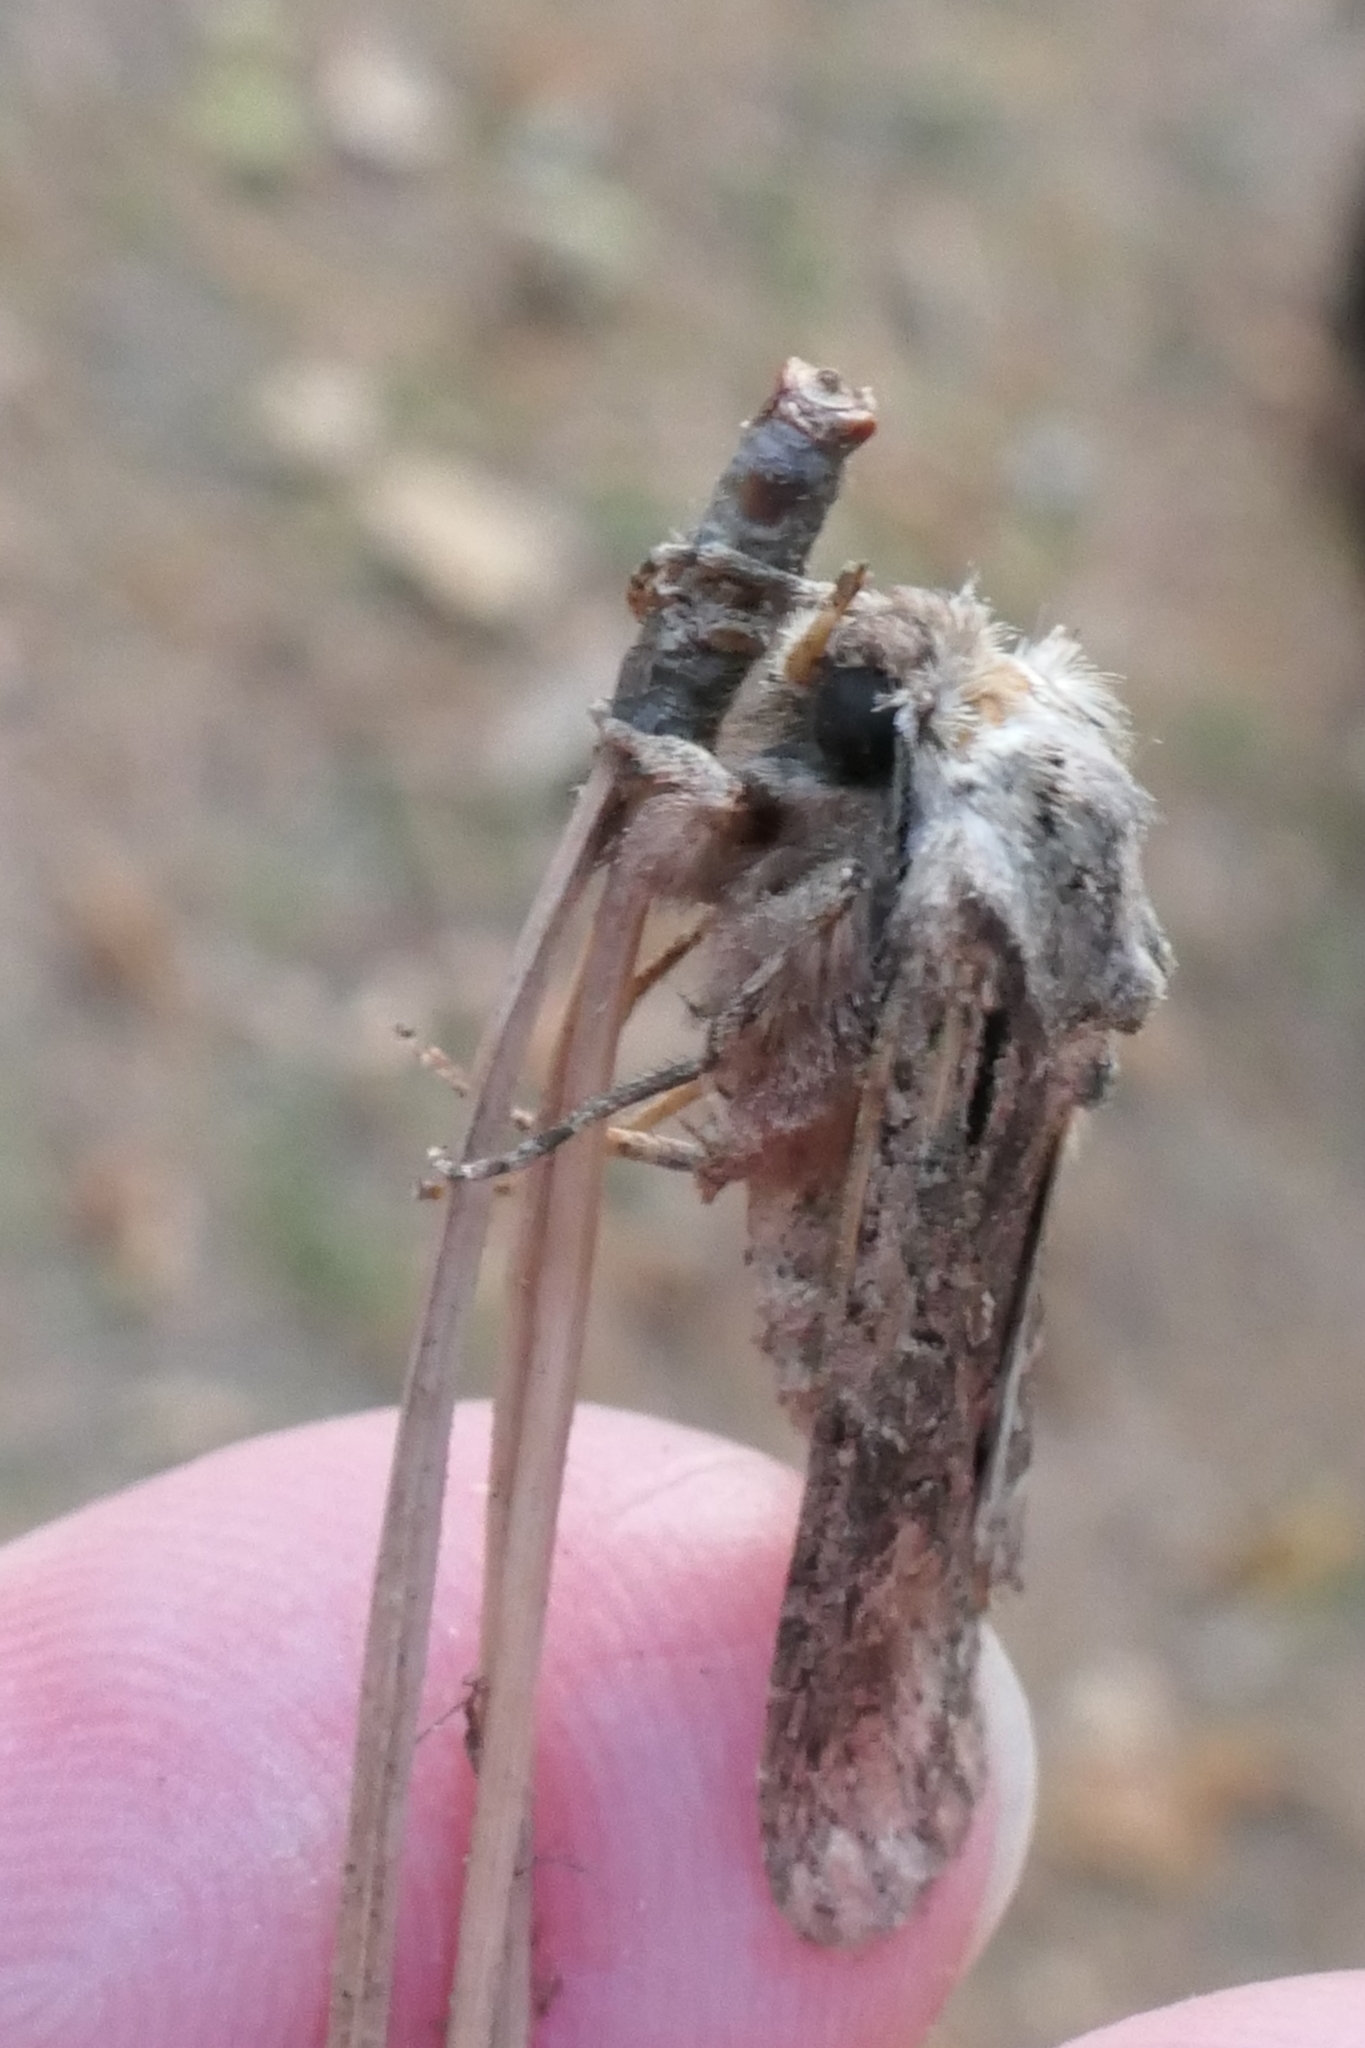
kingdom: Animalia
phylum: Arthropoda
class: Insecta
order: Lepidoptera
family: Noctuidae
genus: Ichneutica
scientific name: Ichneutica mutans
